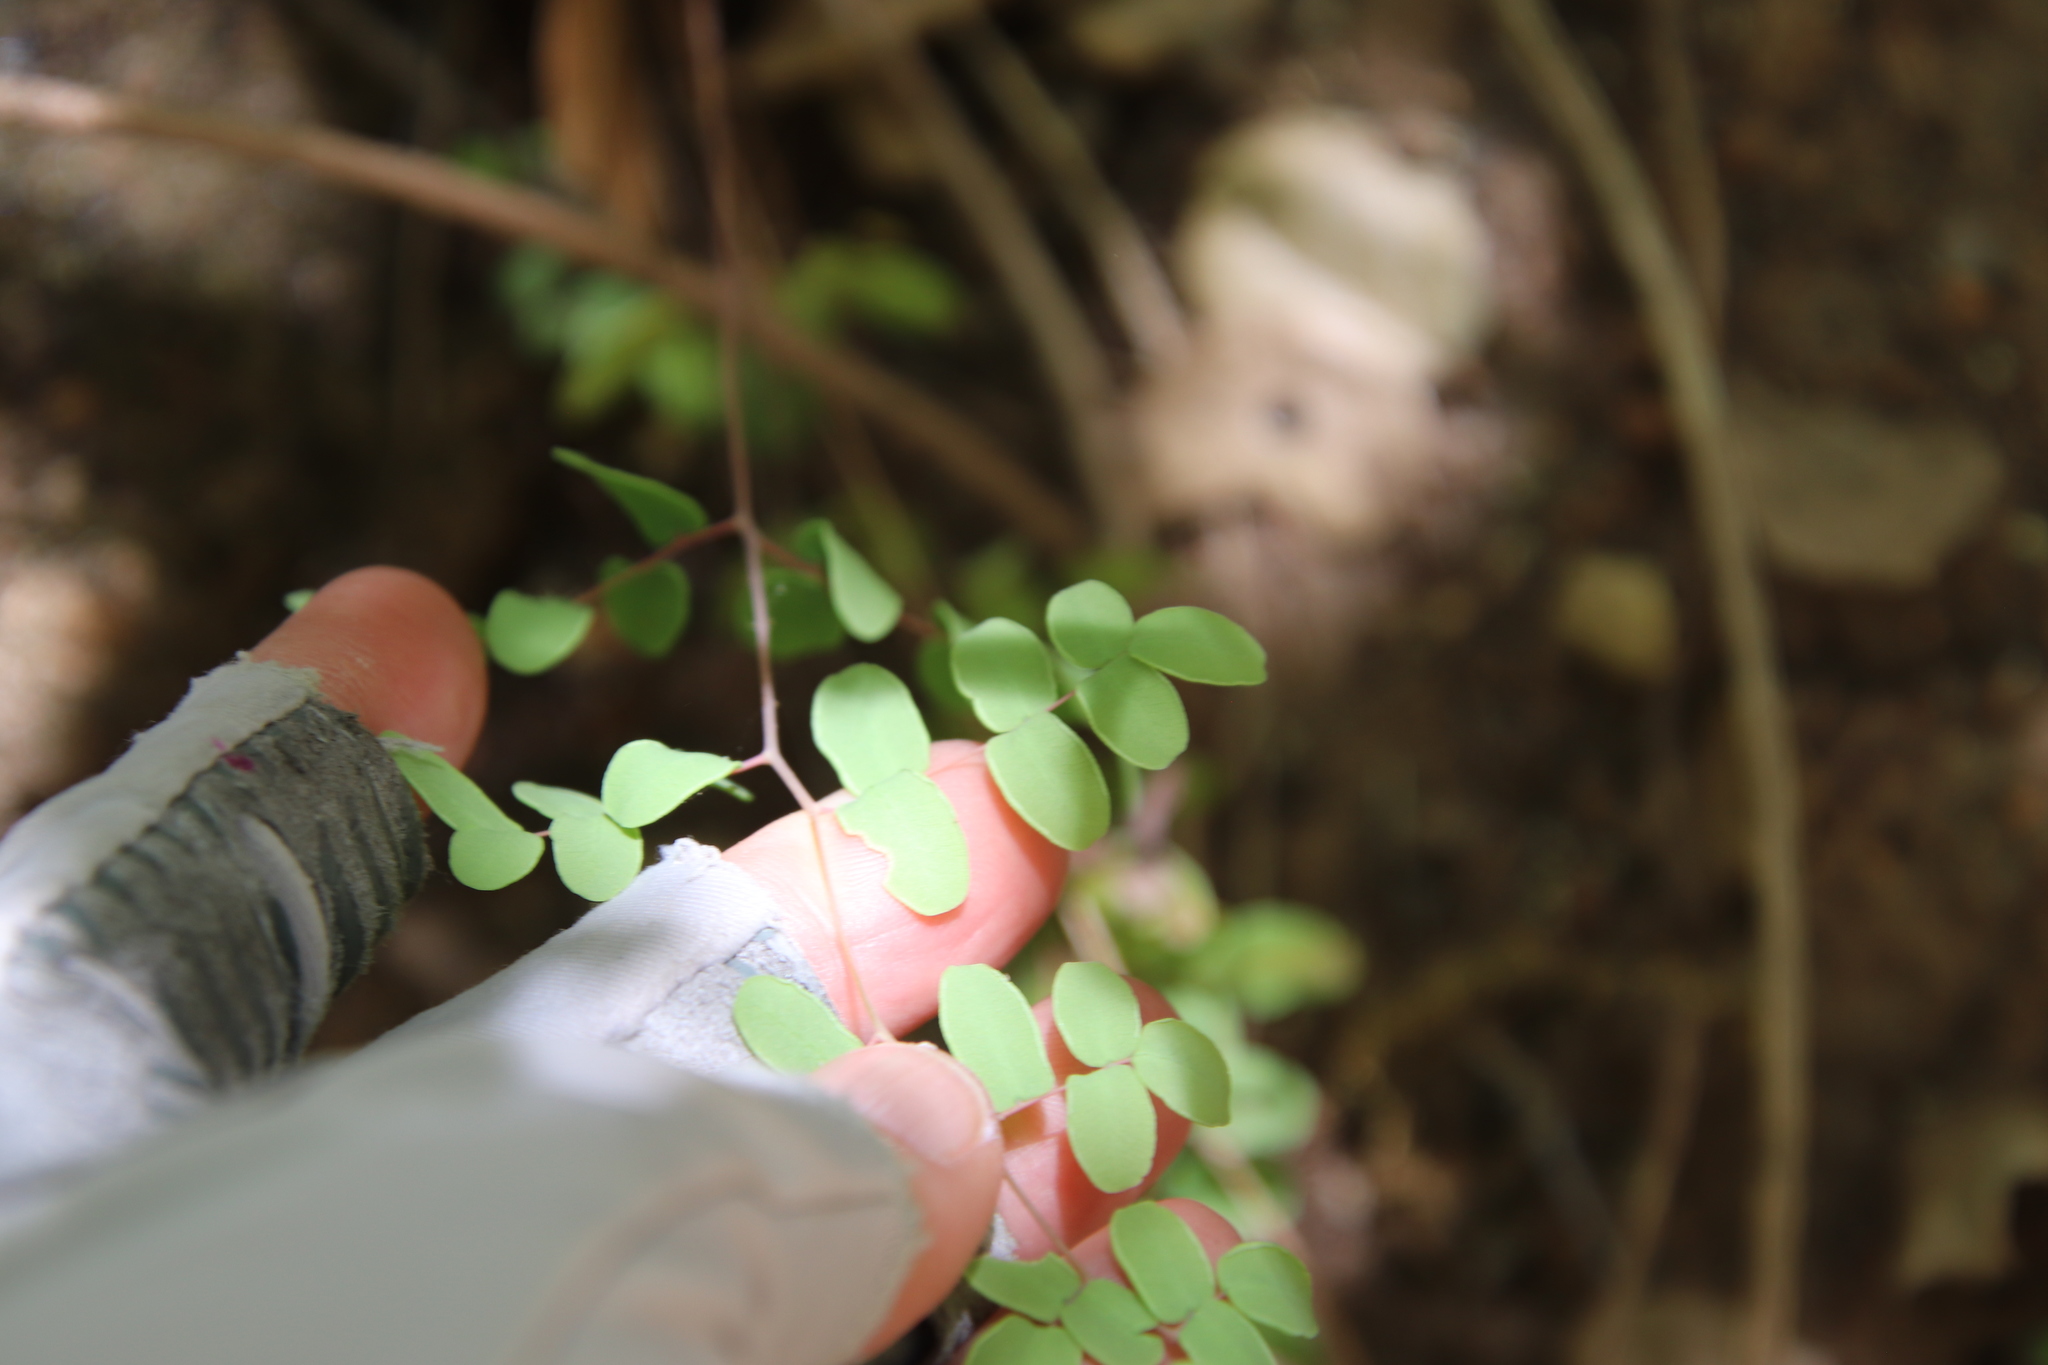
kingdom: Plantae
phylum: Tracheophyta
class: Polypodiopsida
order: Polypodiales
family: Pteridaceae
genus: Pellaea
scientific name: Pellaea andromedifolia
